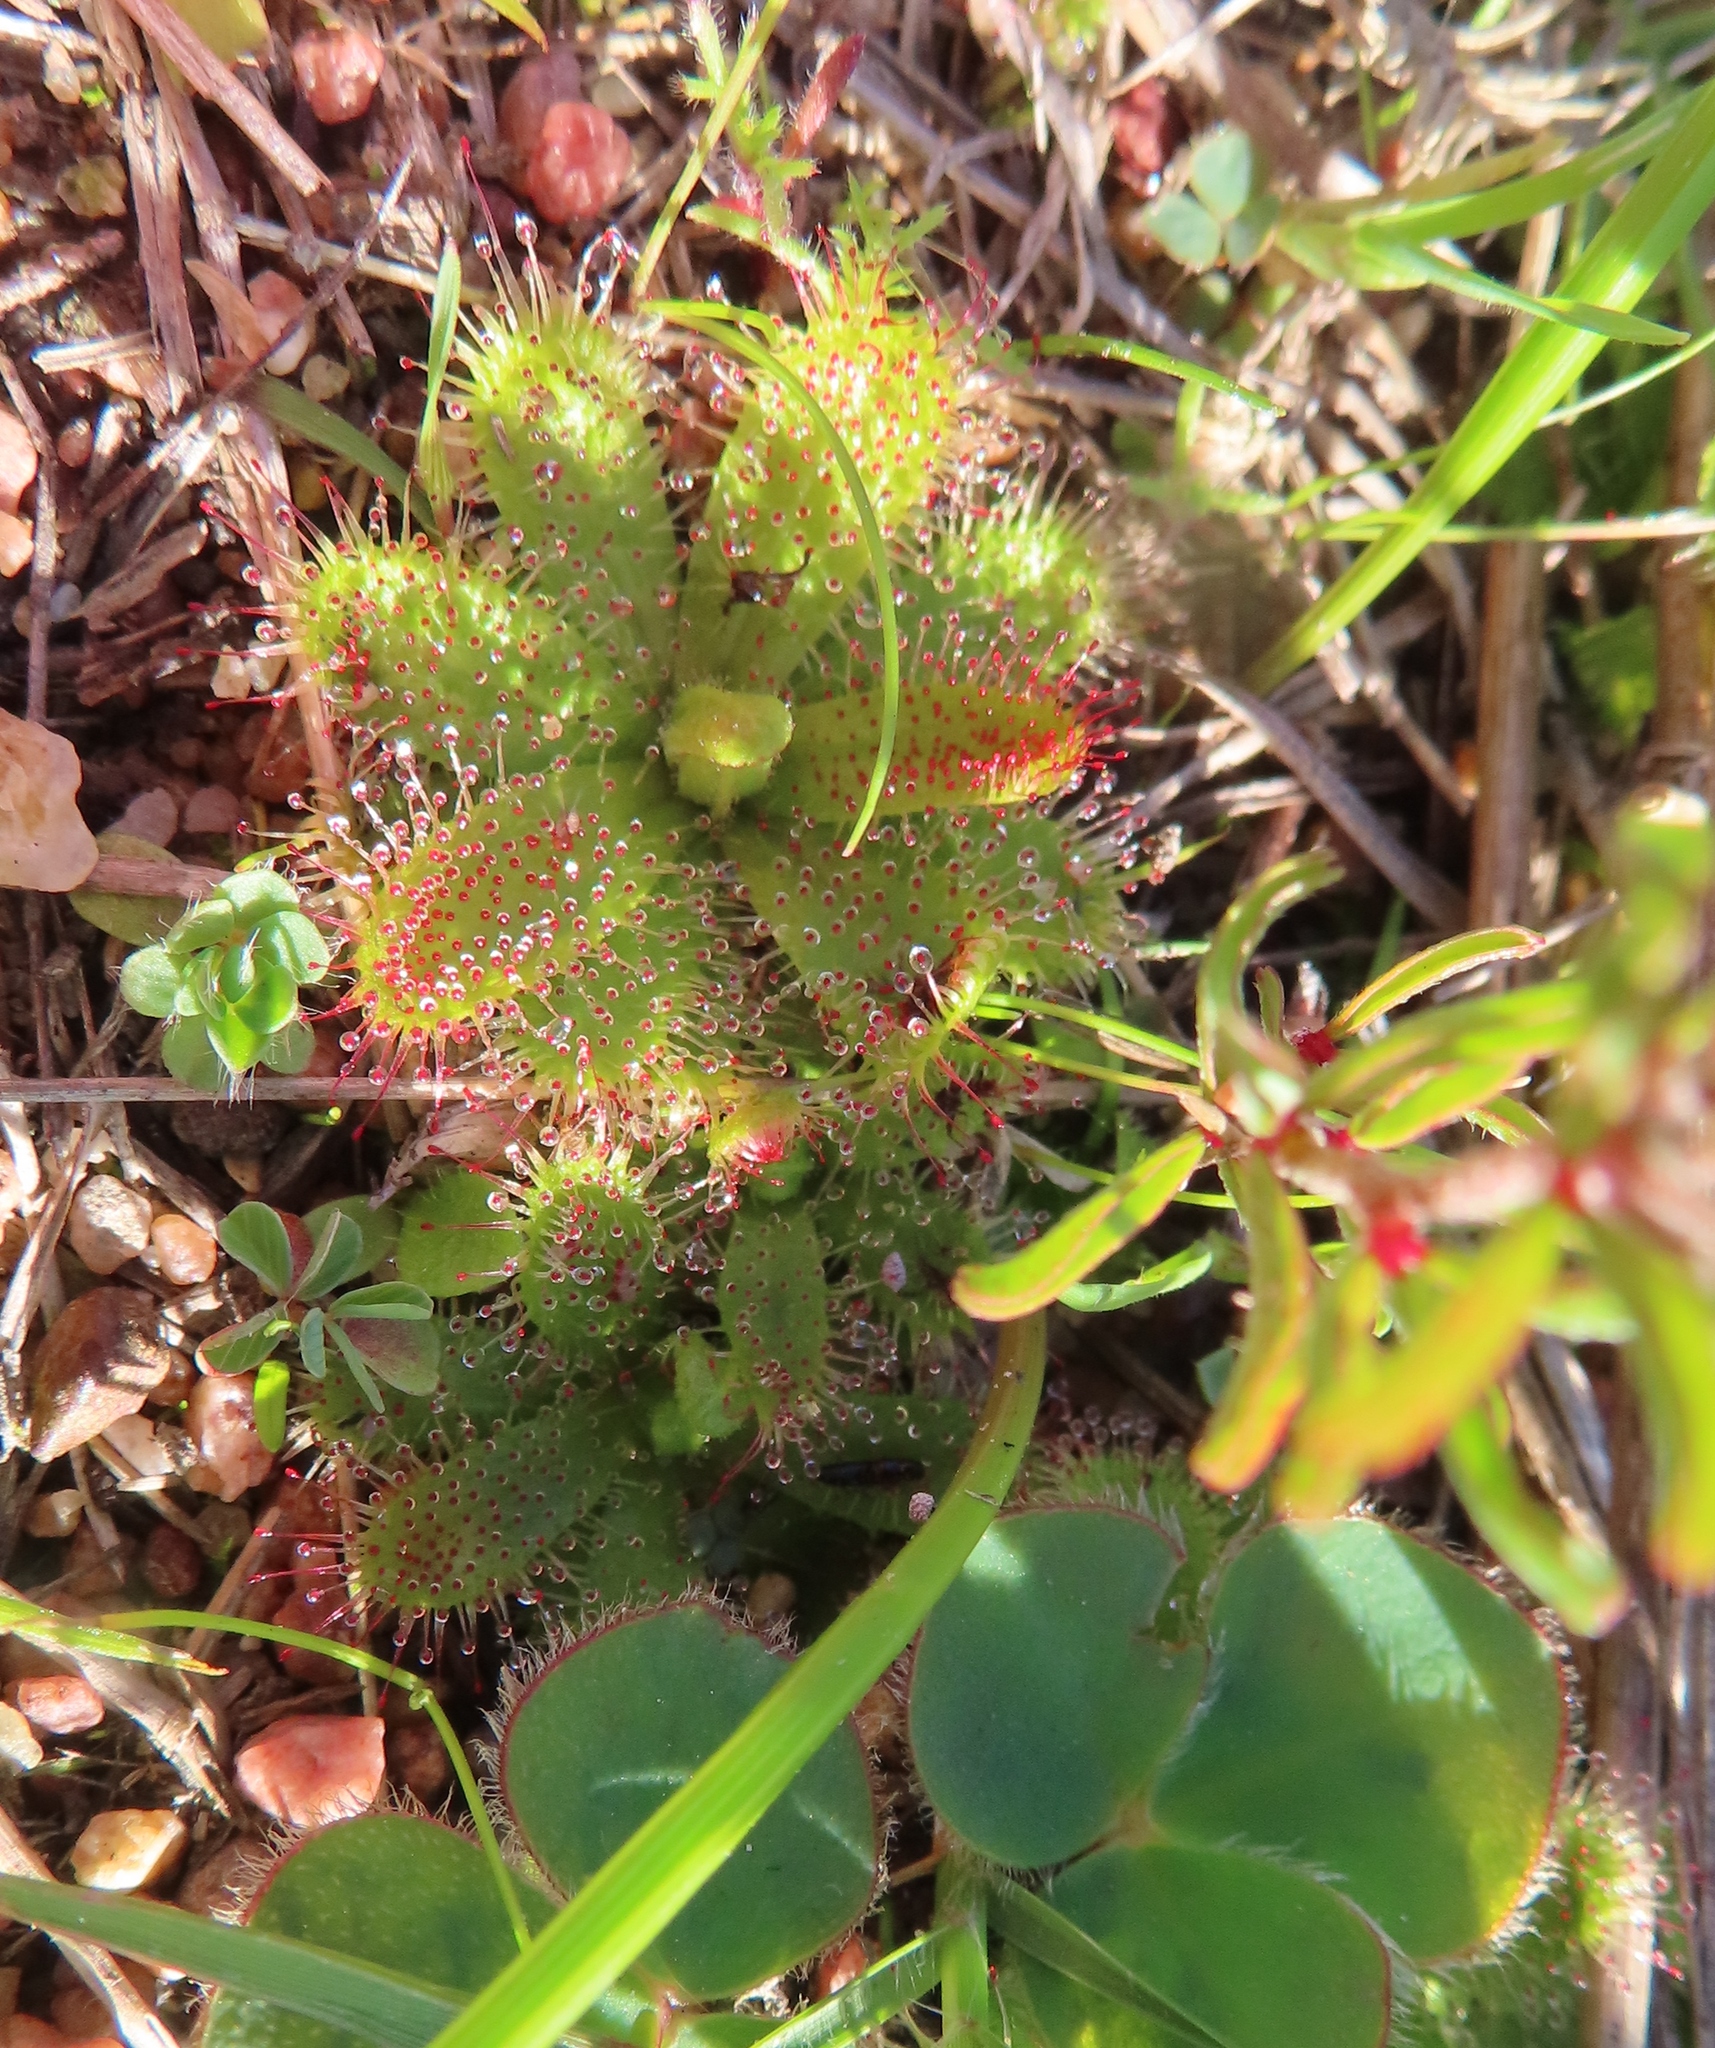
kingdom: Plantae
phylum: Tracheophyta
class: Magnoliopsida
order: Caryophyllales
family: Droseraceae
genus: Drosera
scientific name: Drosera cistiflora
